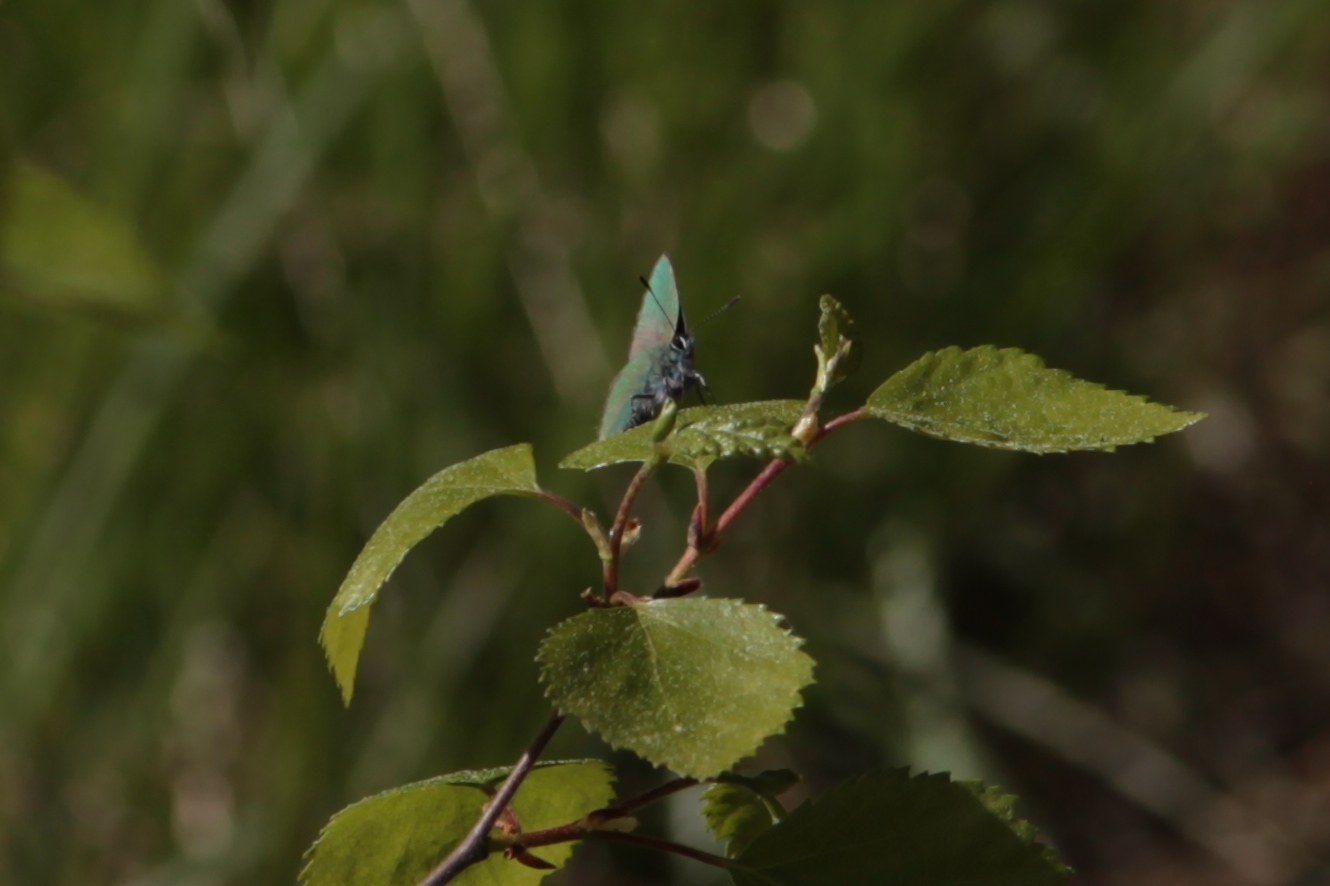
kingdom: Animalia
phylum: Arthropoda
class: Insecta
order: Lepidoptera
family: Lycaenidae
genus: Callophrys
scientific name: Callophrys rubi
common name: Green hairstreak
